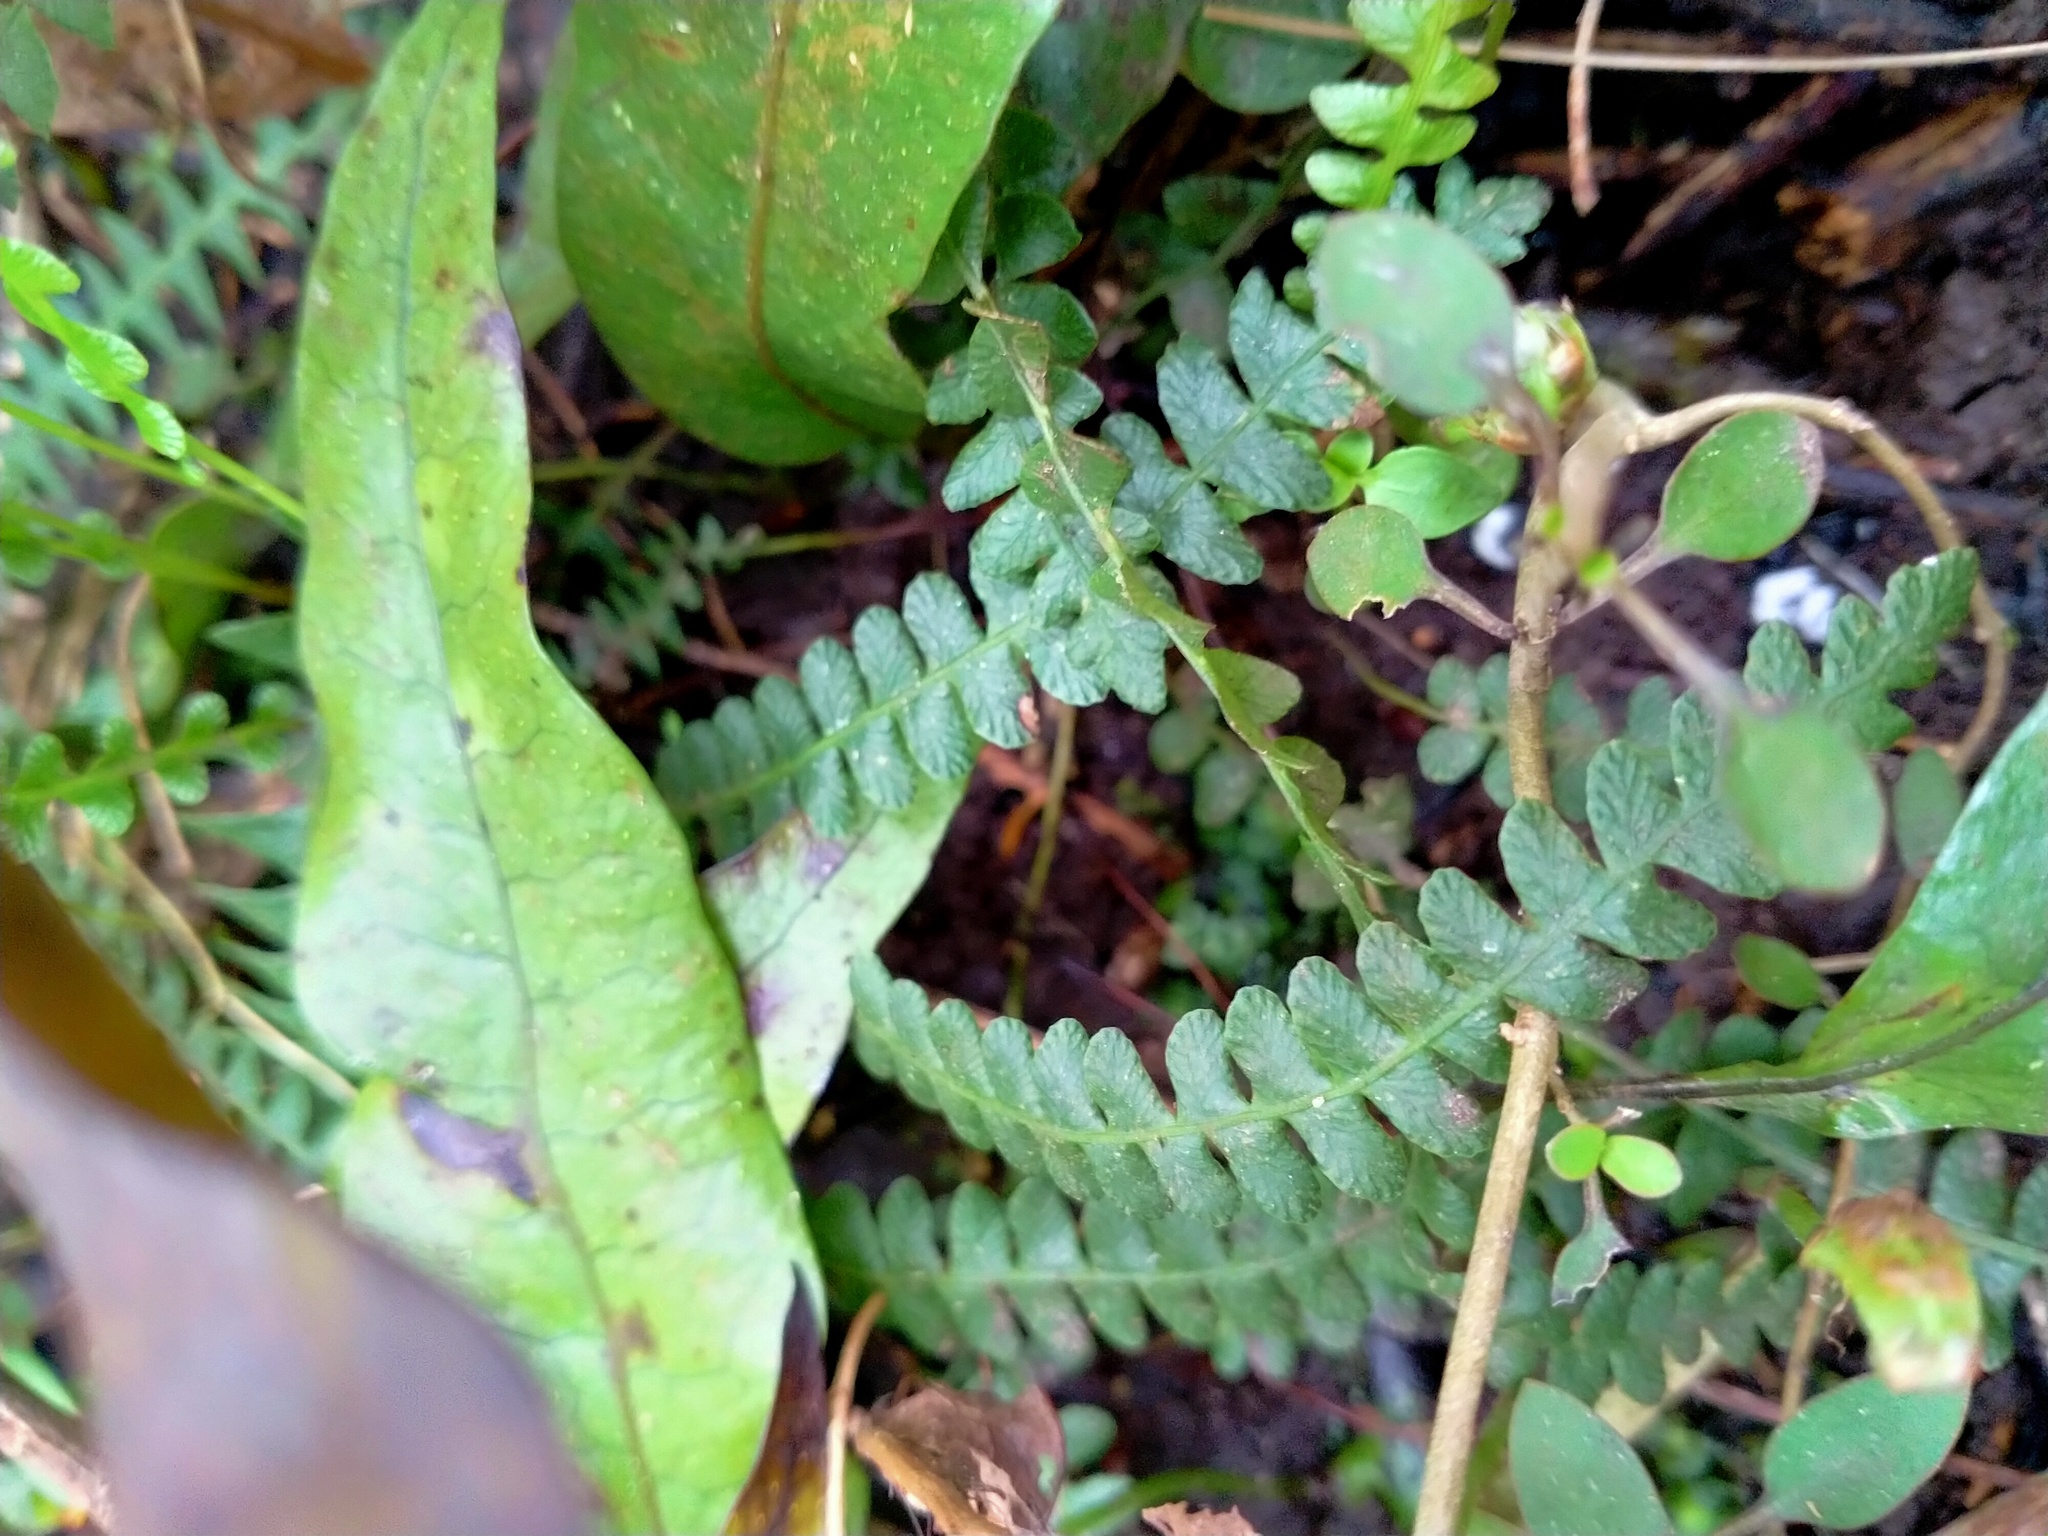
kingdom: Plantae
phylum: Tracheophyta
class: Polypodiopsida
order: Polypodiales
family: Blechnaceae
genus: Austroblechnum
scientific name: Austroblechnum penna-marina
